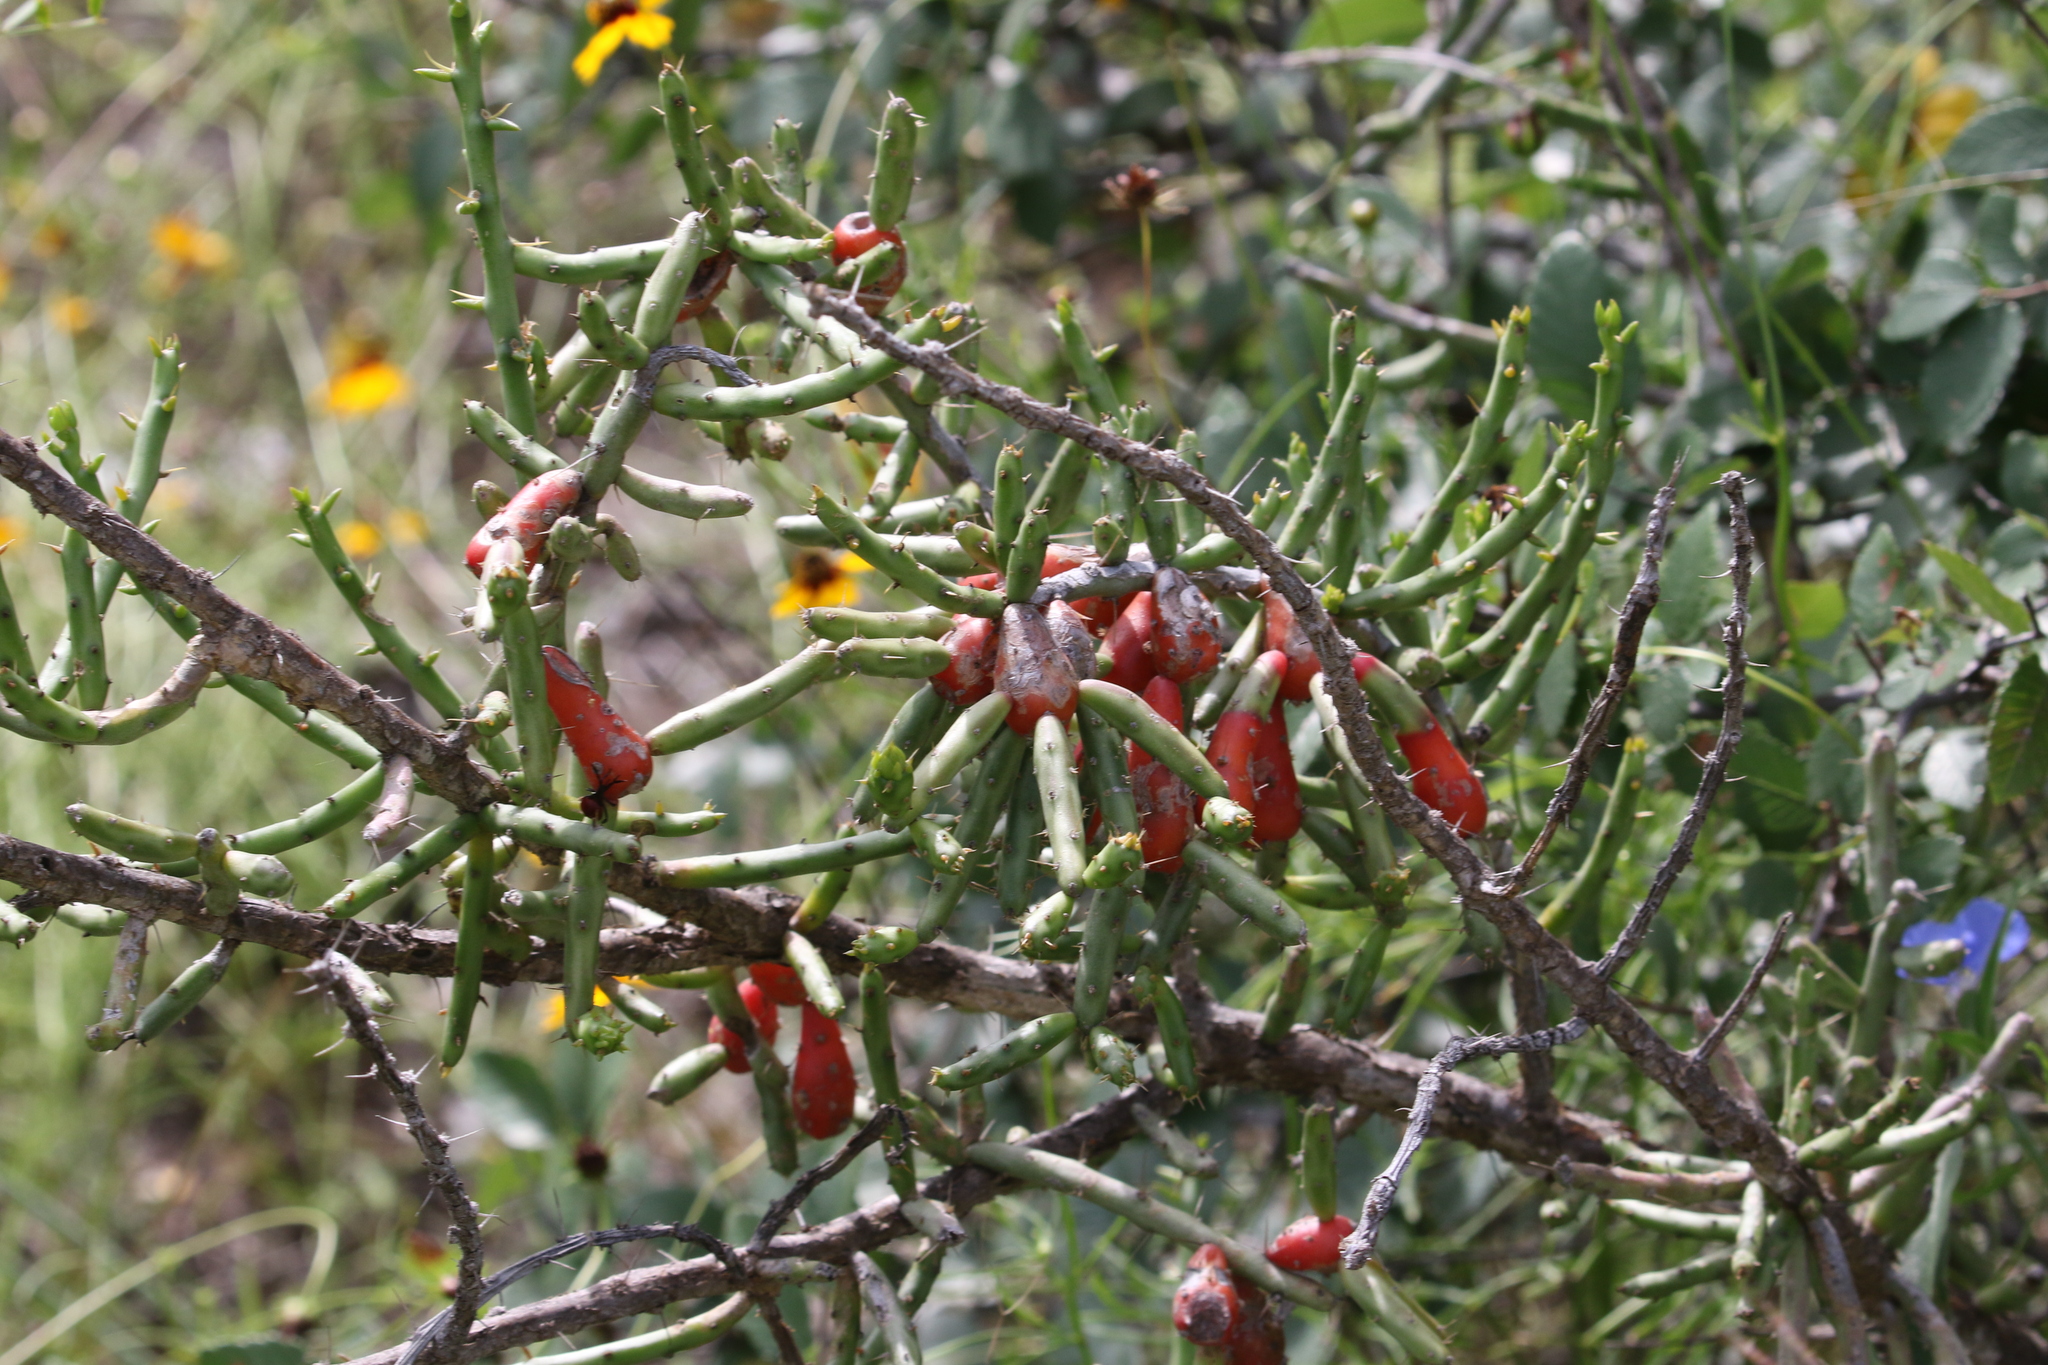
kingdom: Plantae
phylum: Tracheophyta
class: Magnoliopsida
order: Caryophyllales
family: Cactaceae
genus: Cylindropuntia
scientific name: Cylindropuntia leptocaulis
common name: Christmas cactus
